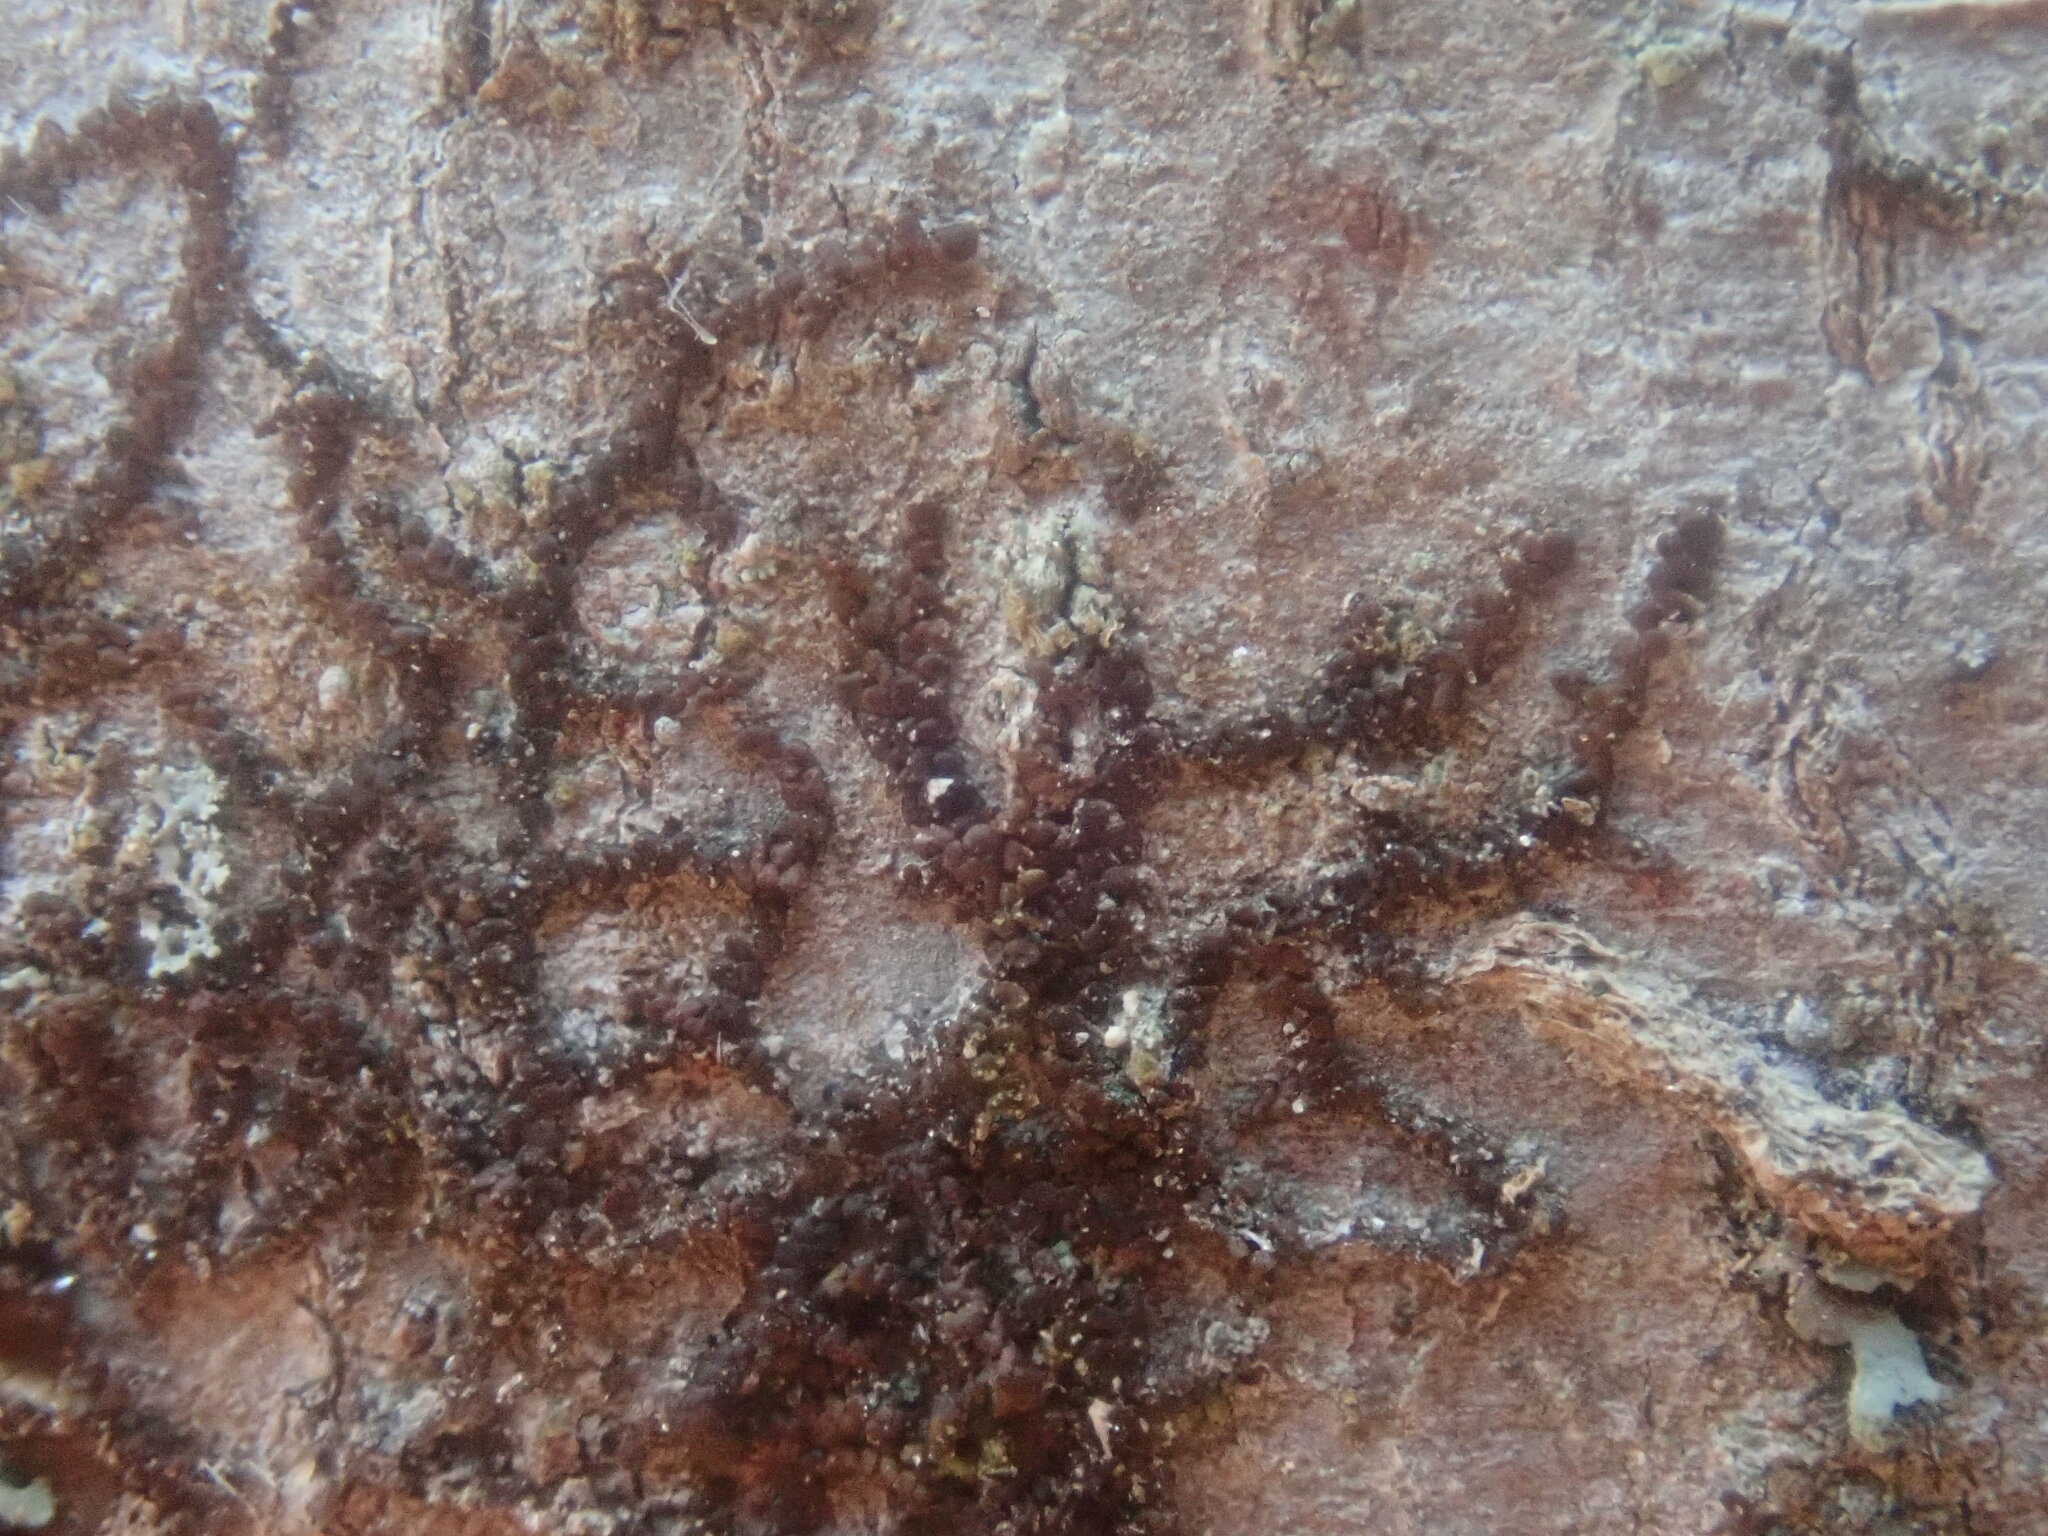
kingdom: Plantae
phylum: Marchantiophyta
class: Jungermanniopsida
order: Porellales
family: Frullaniaceae
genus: Frullania
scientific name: Frullania
